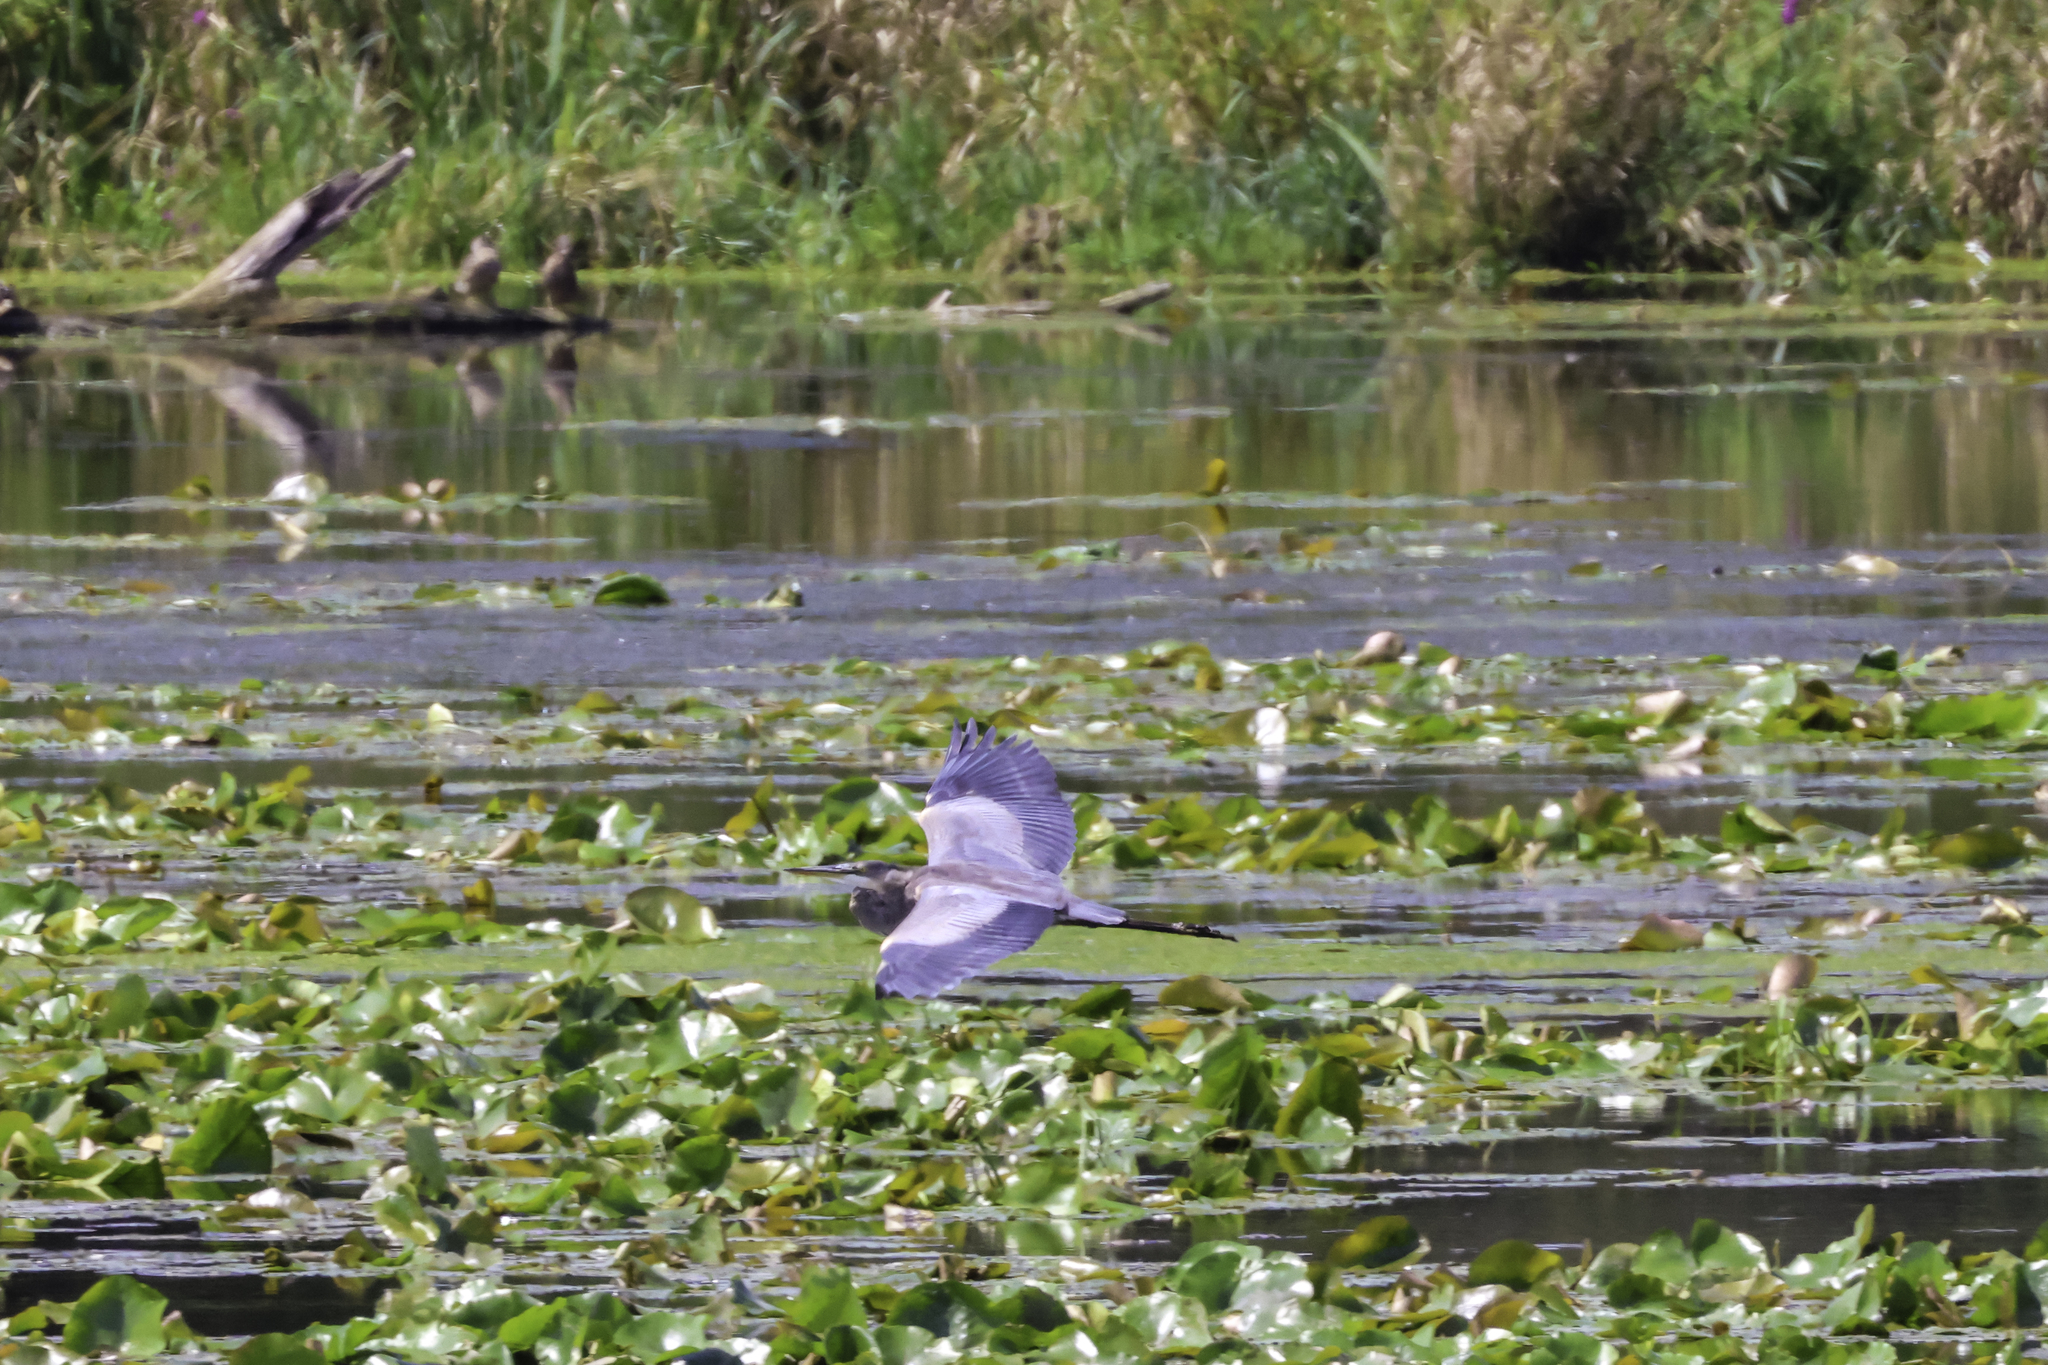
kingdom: Animalia
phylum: Chordata
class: Aves
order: Pelecaniformes
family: Ardeidae
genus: Ardea
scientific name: Ardea herodias
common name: Great blue heron
